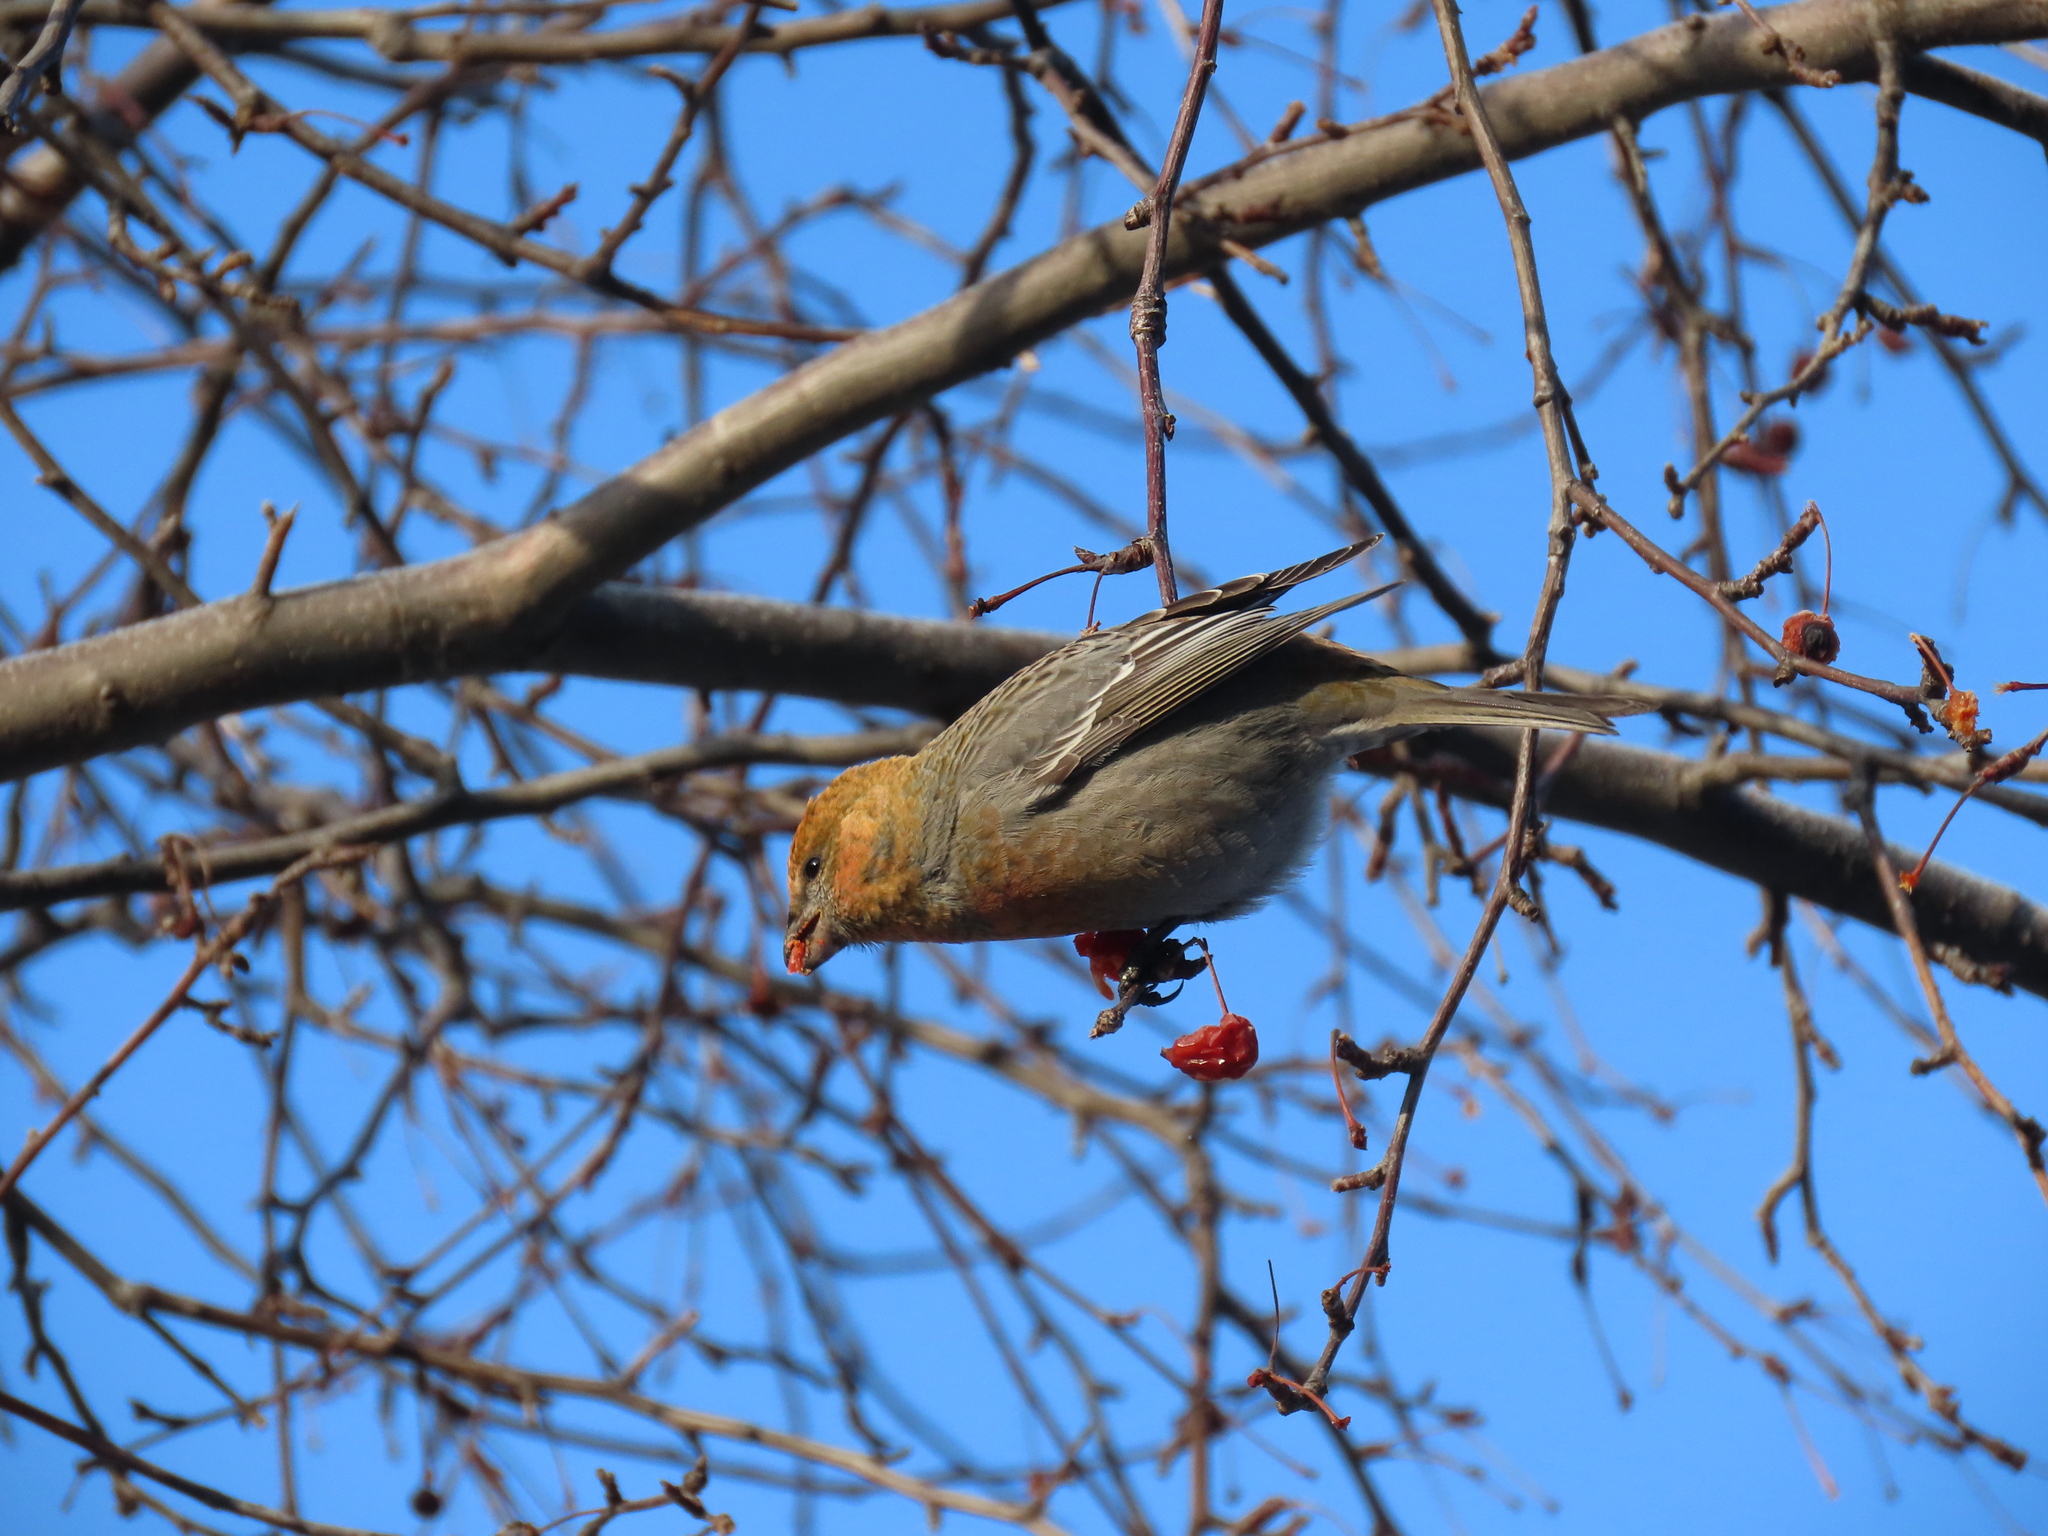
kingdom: Animalia
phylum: Chordata
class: Aves
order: Passeriformes
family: Fringillidae
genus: Pinicola
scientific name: Pinicola enucleator
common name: Pine grosbeak
